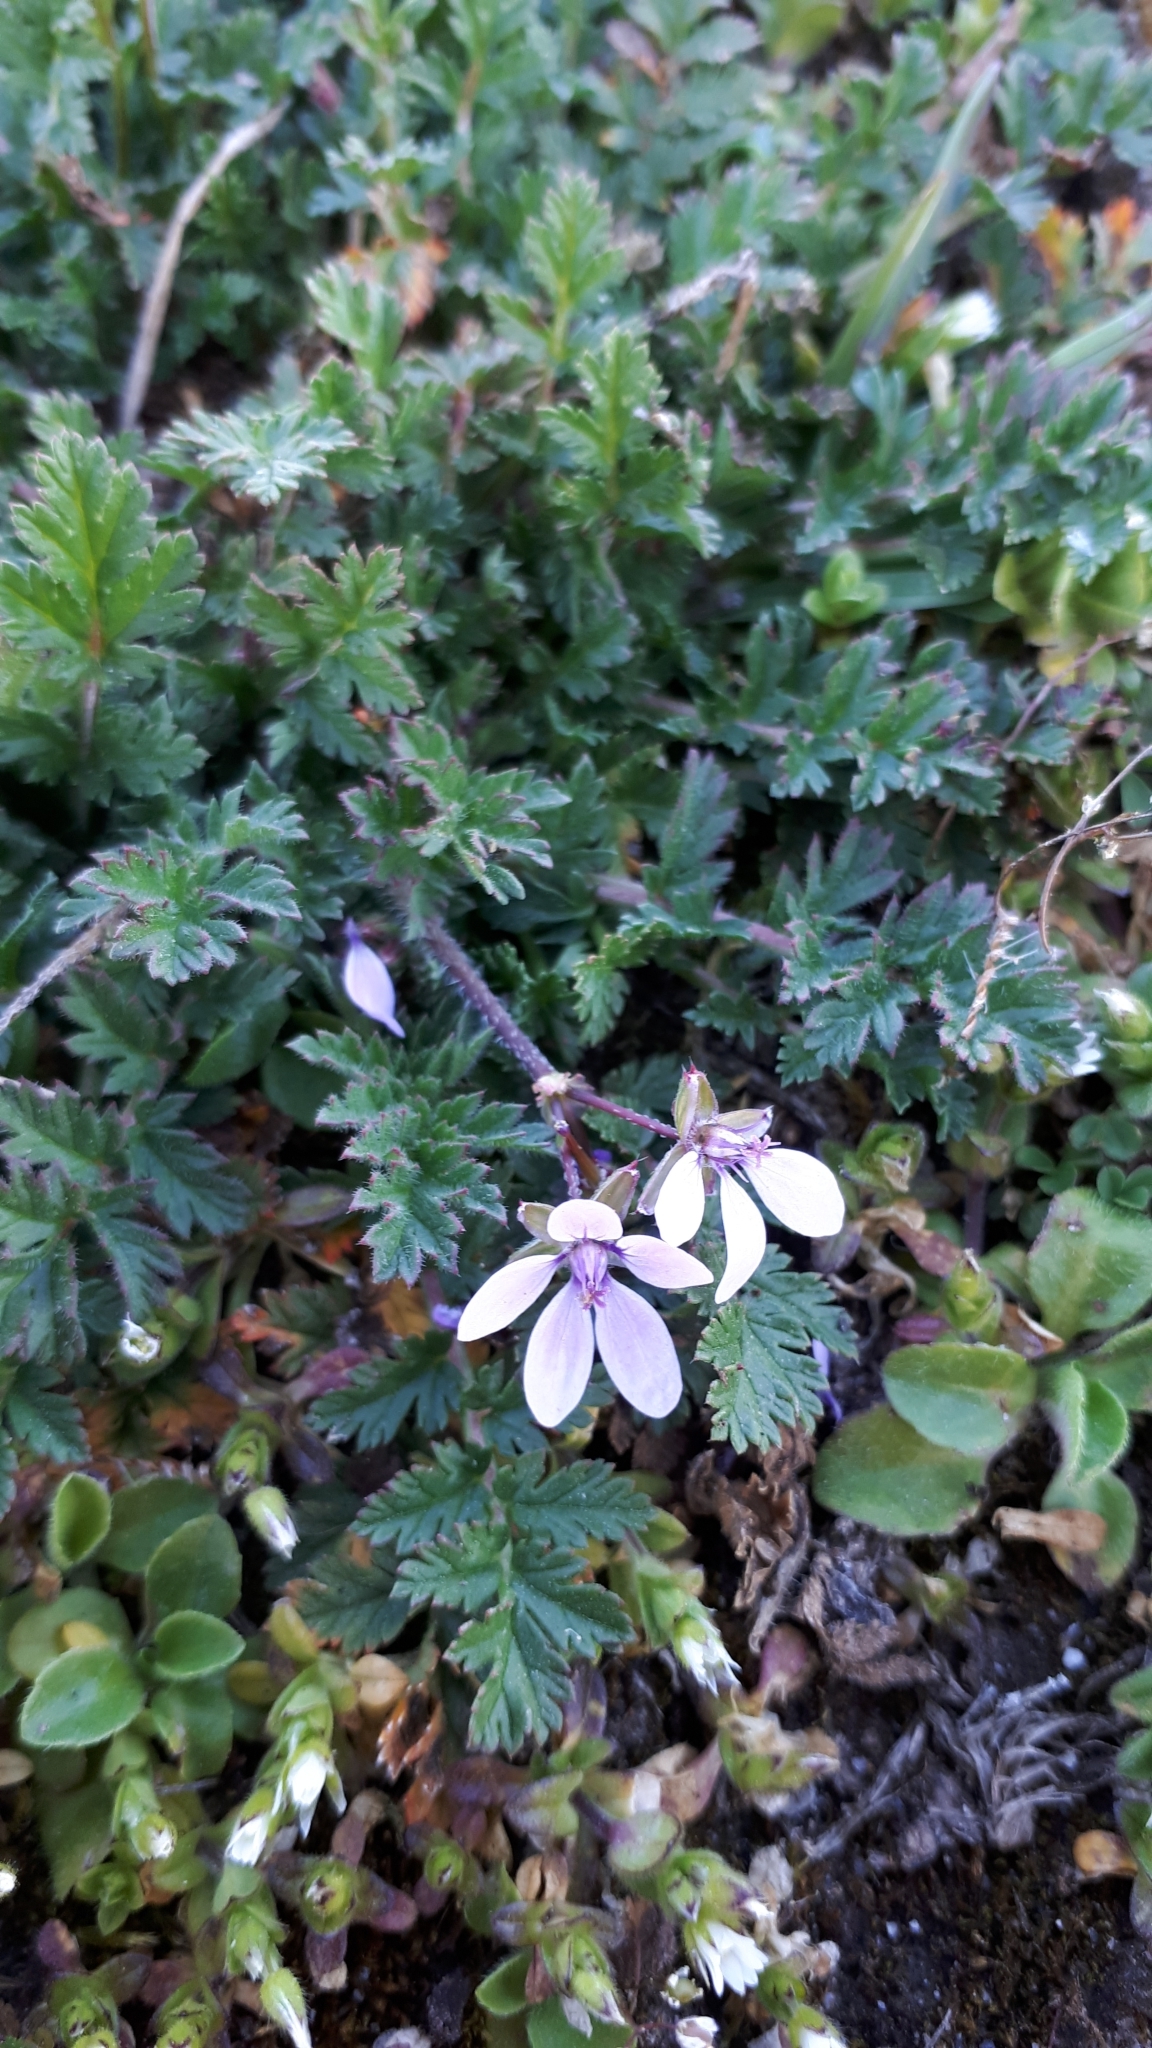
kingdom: Plantae
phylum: Tracheophyta
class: Magnoliopsida
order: Geraniales
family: Geraniaceae
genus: Erodium
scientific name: Erodium cicutarium
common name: Common stork's-bill
